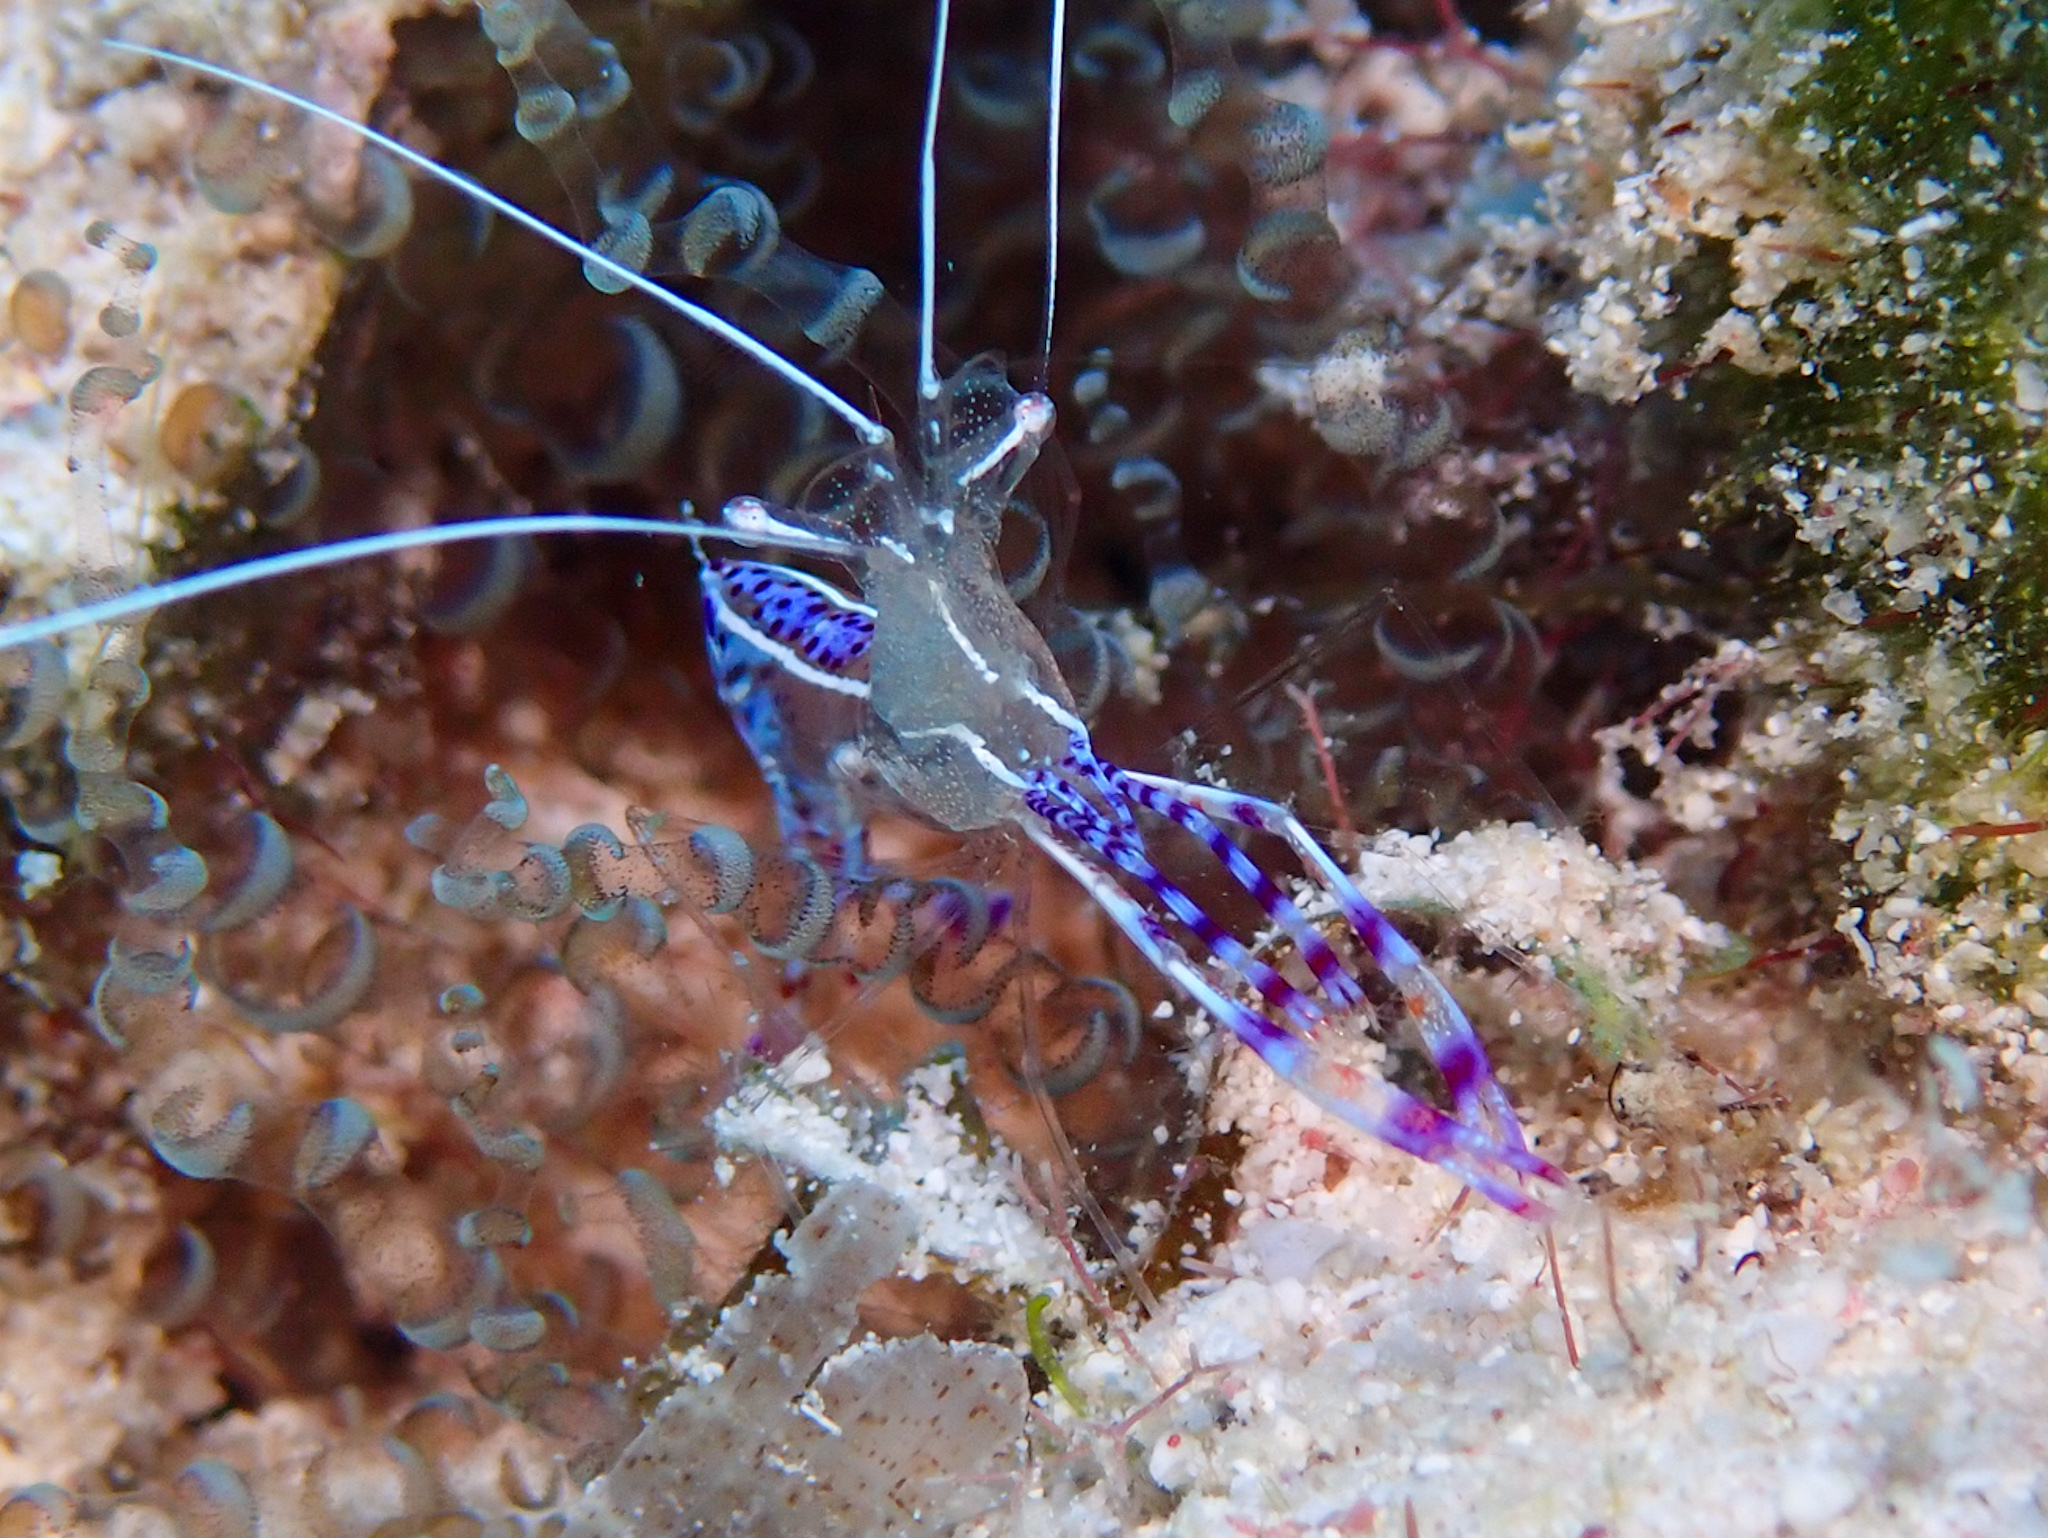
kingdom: Animalia
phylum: Arthropoda
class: Malacostraca
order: Decapoda
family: Palaemonidae
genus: Ancylomenes
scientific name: Ancylomenes pedersoni
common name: Pederson's cleaning shrimp
